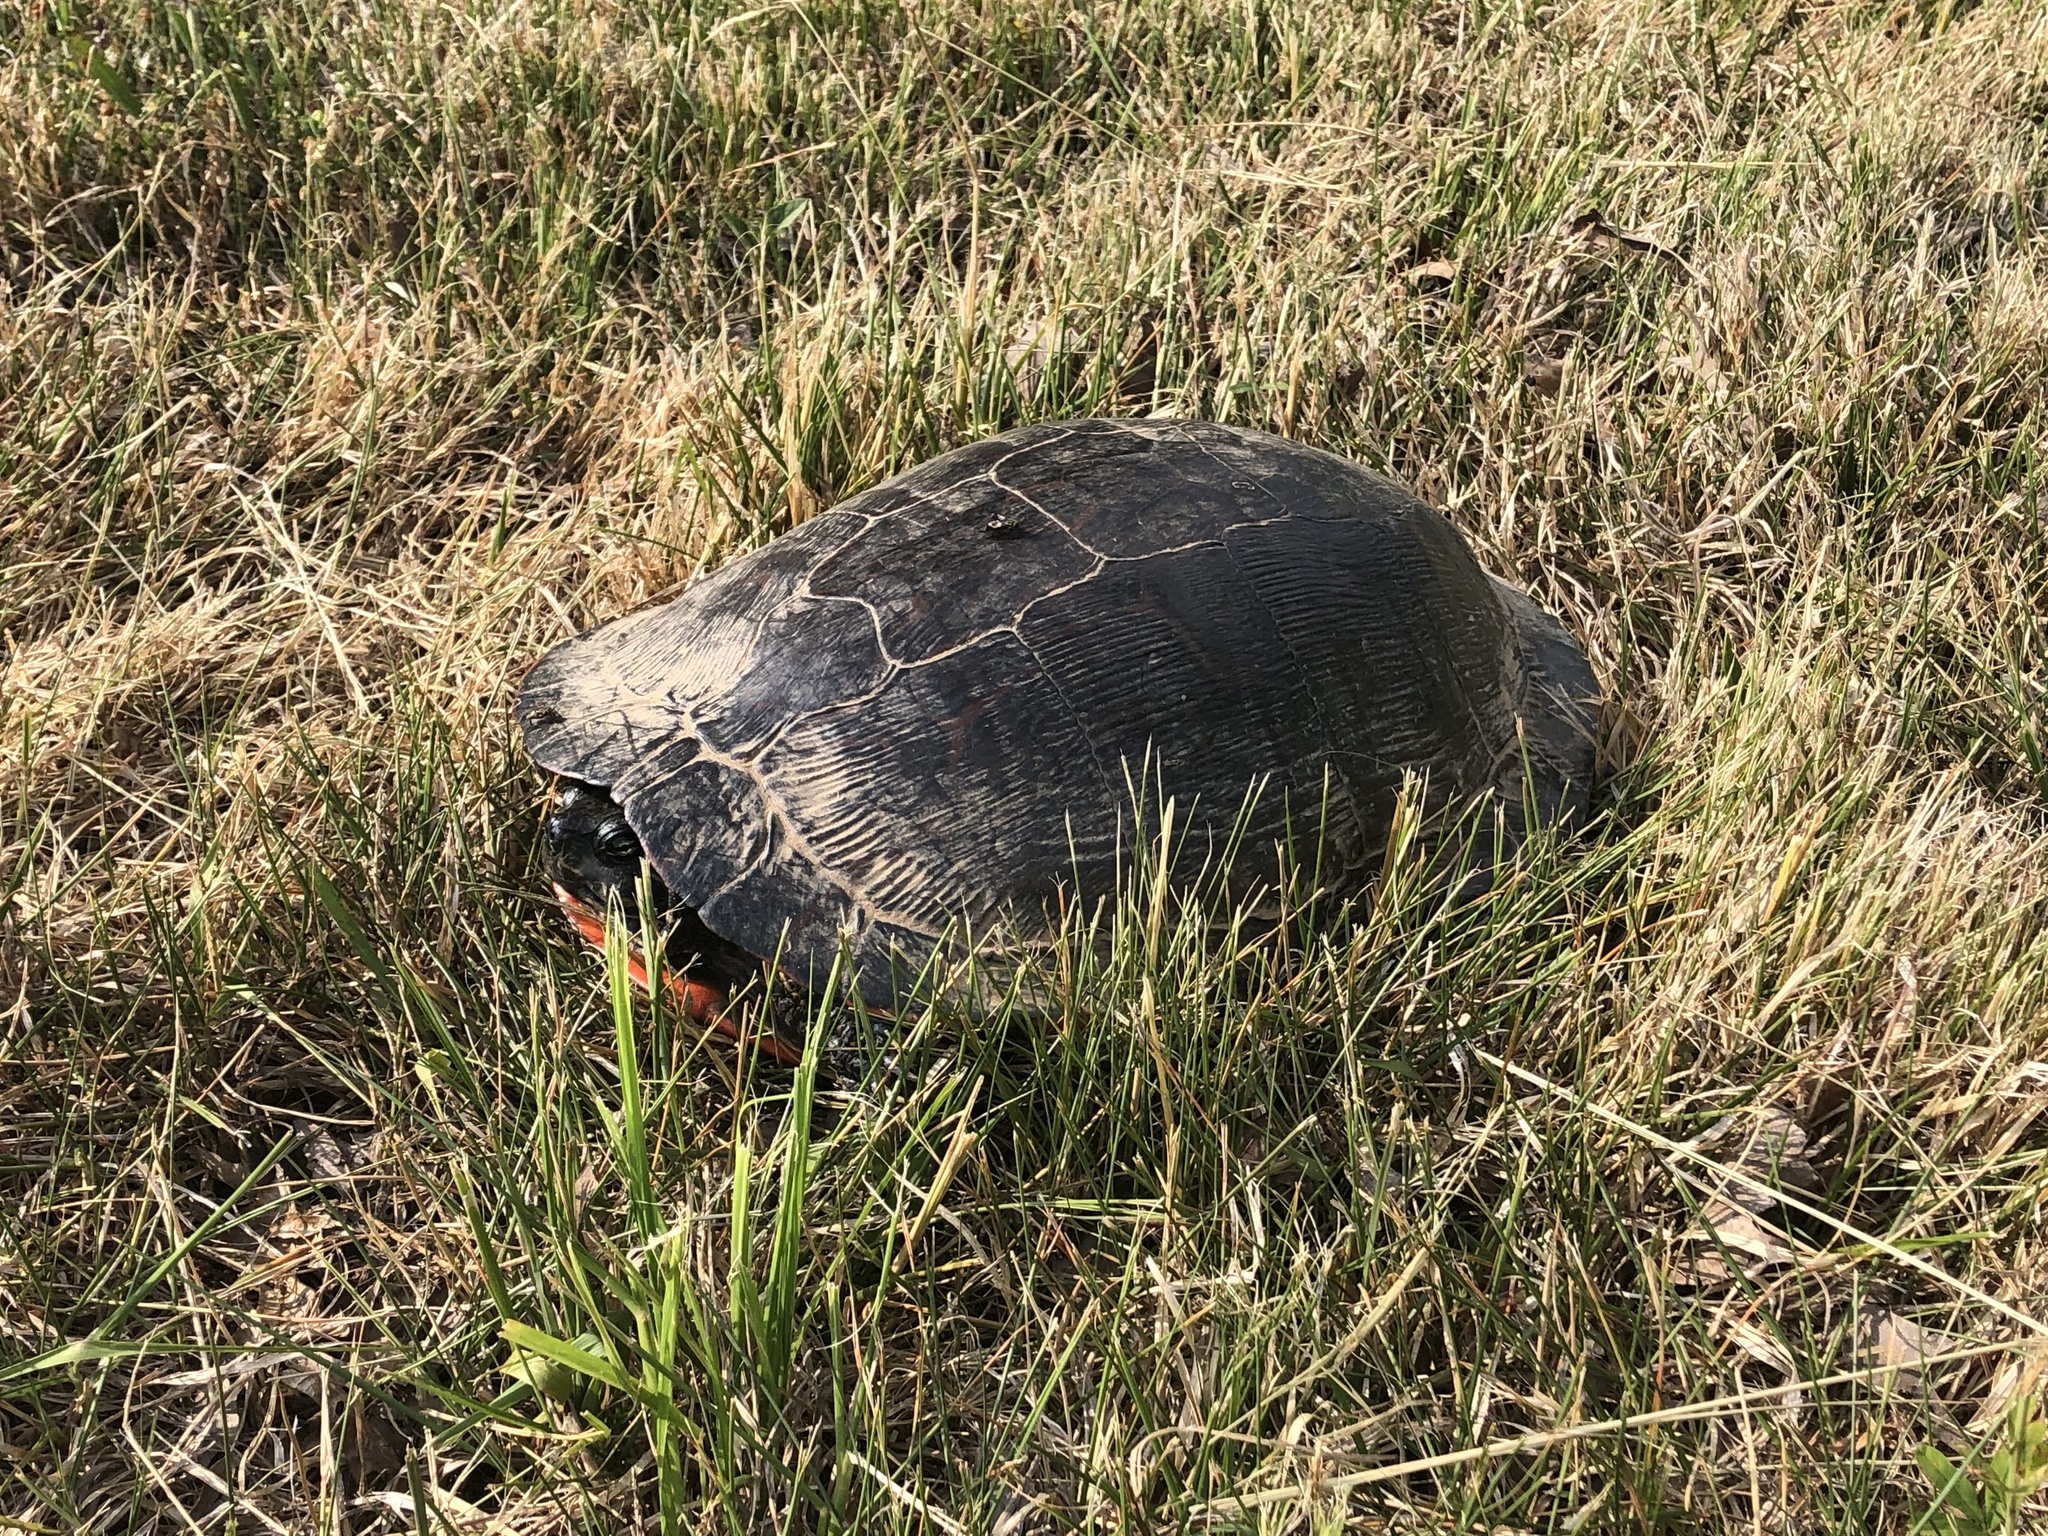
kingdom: Animalia
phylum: Chordata
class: Testudines
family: Emydidae
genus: Pseudemys
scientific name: Pseudemys rubriventris
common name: American red-bellied turtle
